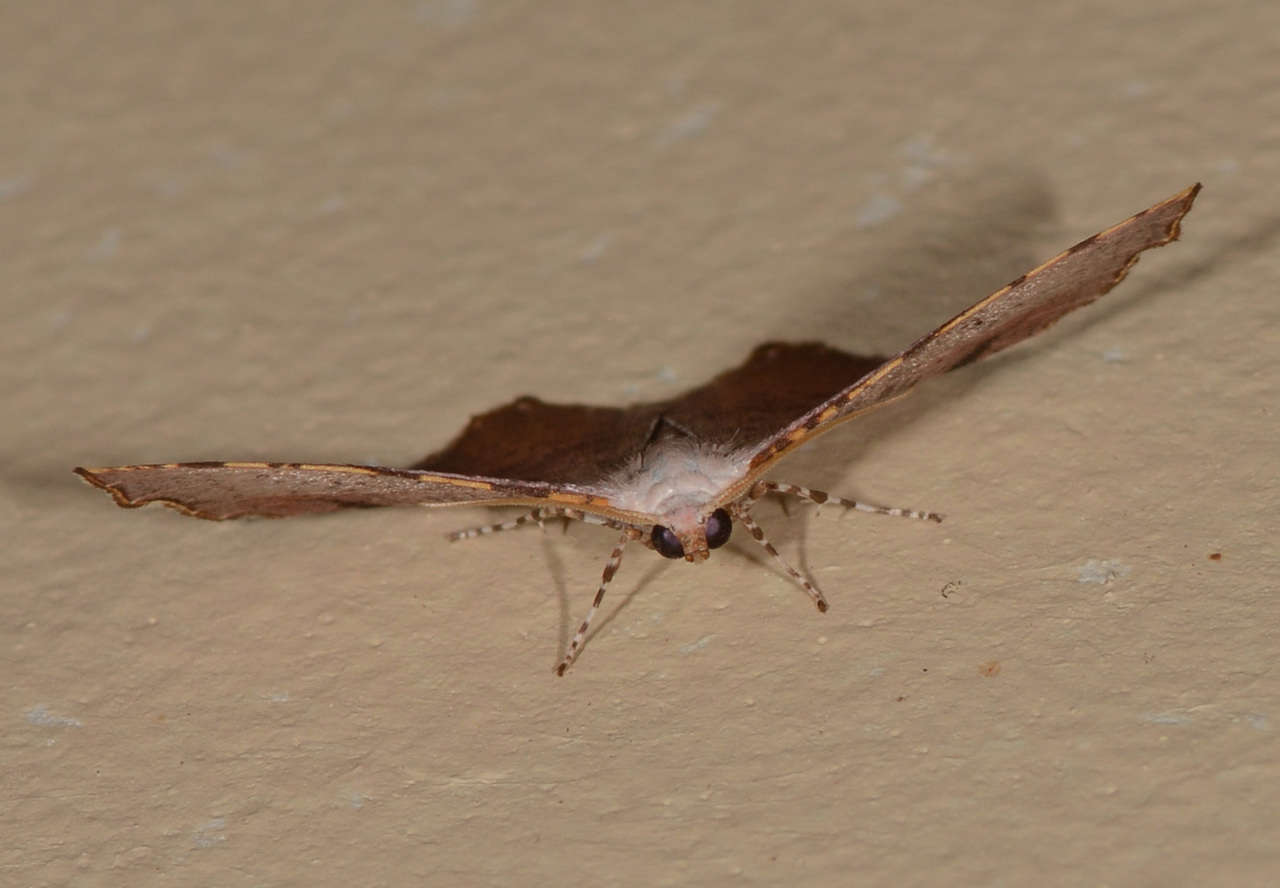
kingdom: Animalia
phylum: Arthropoda
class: Insecta
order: Lepidoptera
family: Geometridae
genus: Epicompsa
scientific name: Epicompsa xanthocrossa
